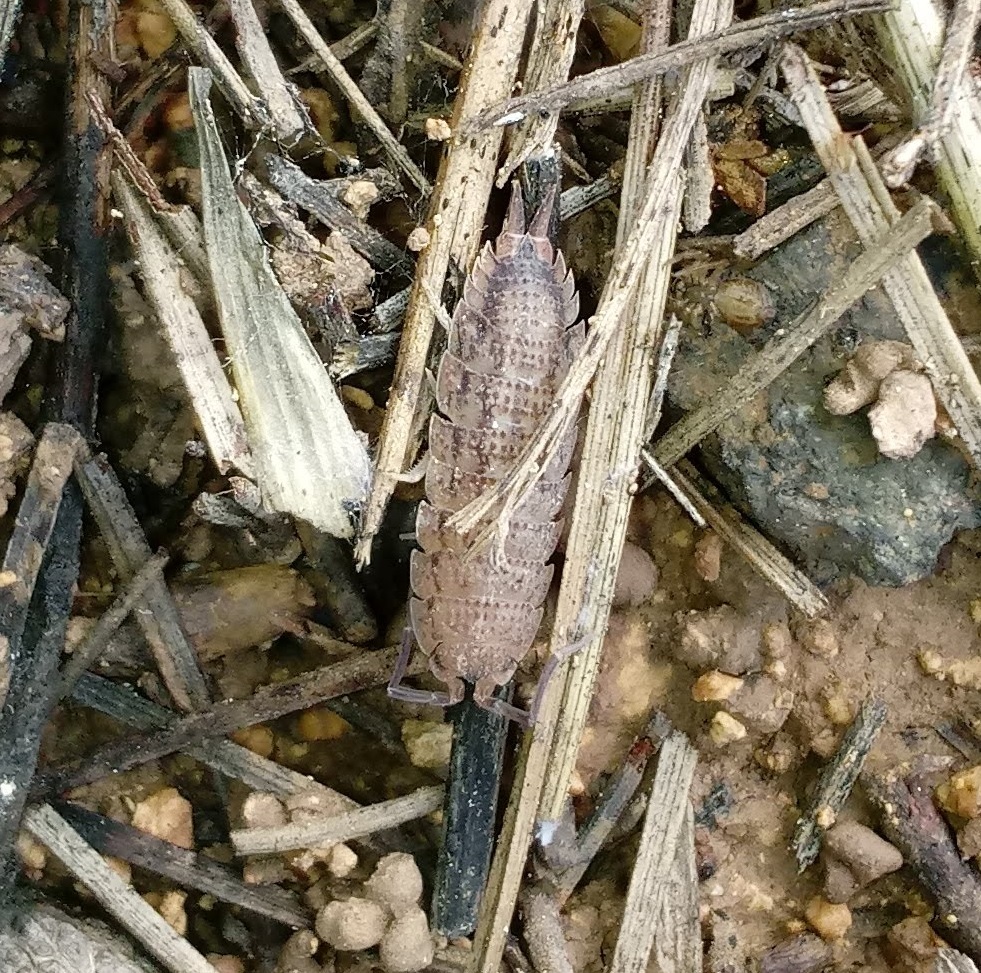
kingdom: Animalia
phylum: Arthropoda
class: Malacostraca
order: Isopoda
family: Porcellionidae
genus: Porcellio
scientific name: Porcellio barroisi
